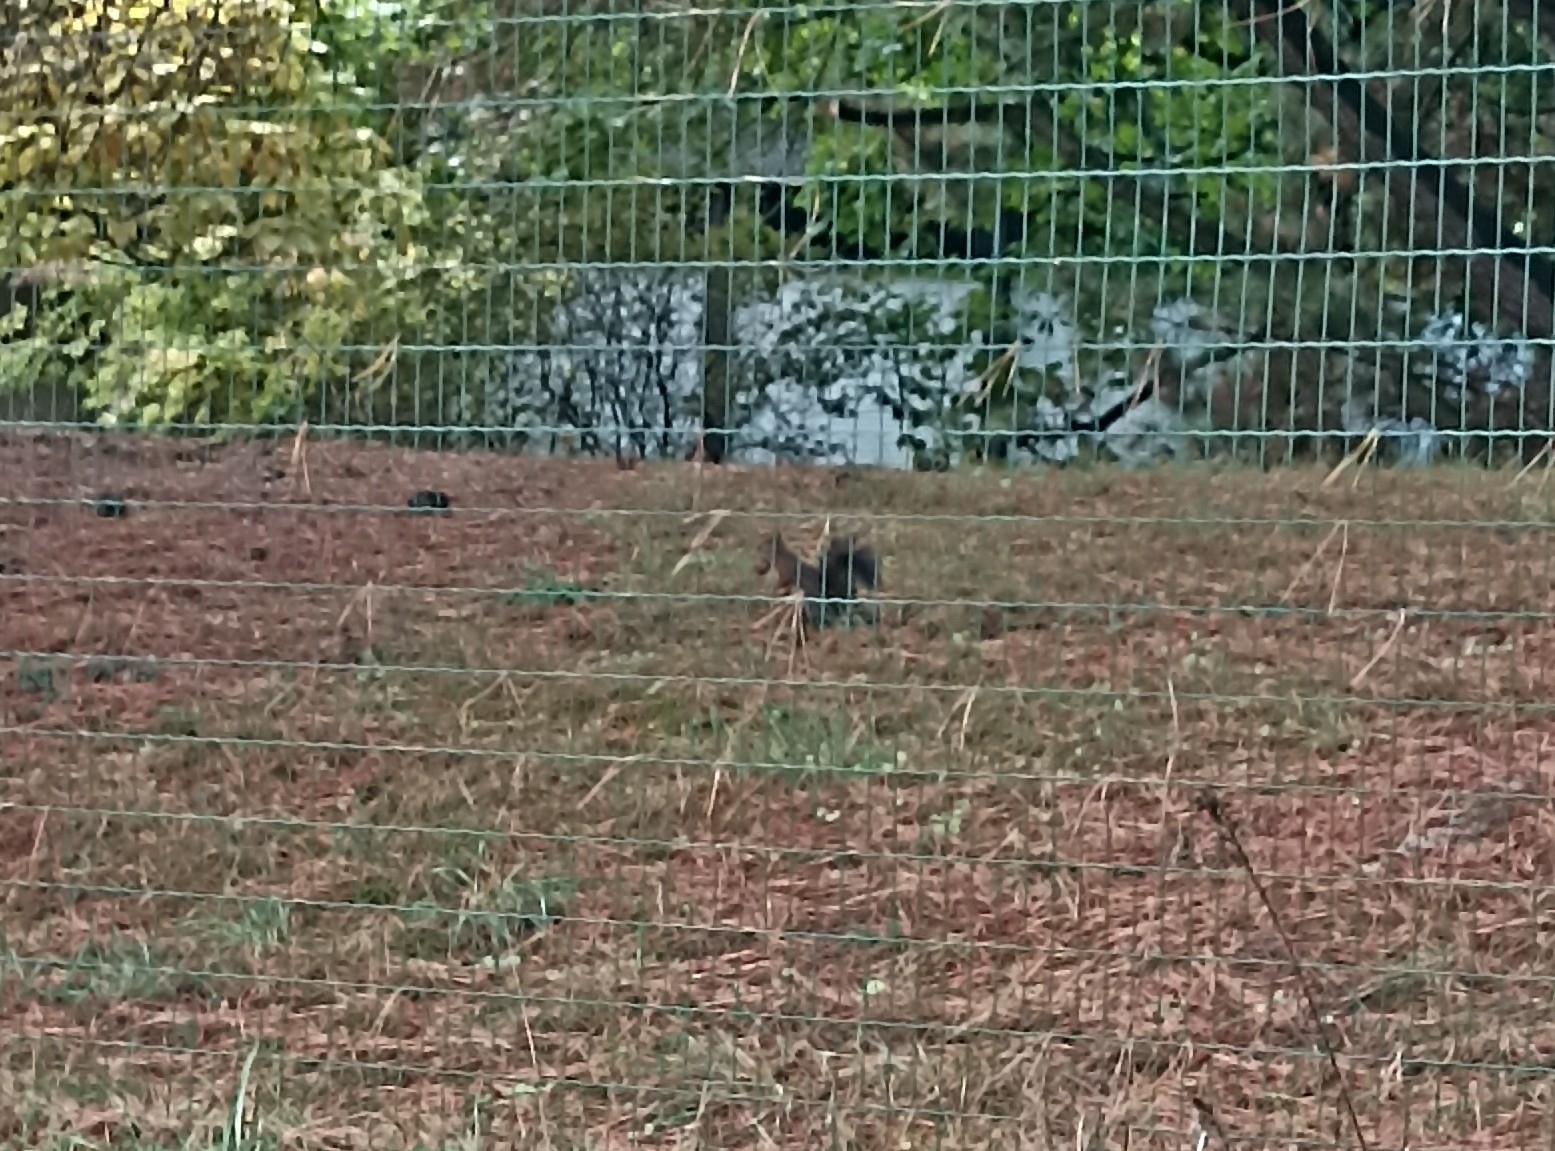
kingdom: Animalia
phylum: Chordata
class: Mammalia
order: Rodentia
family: Sciuridae
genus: Sciurus
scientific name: Sciurus vulgaris
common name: Eurasian red squirrel
